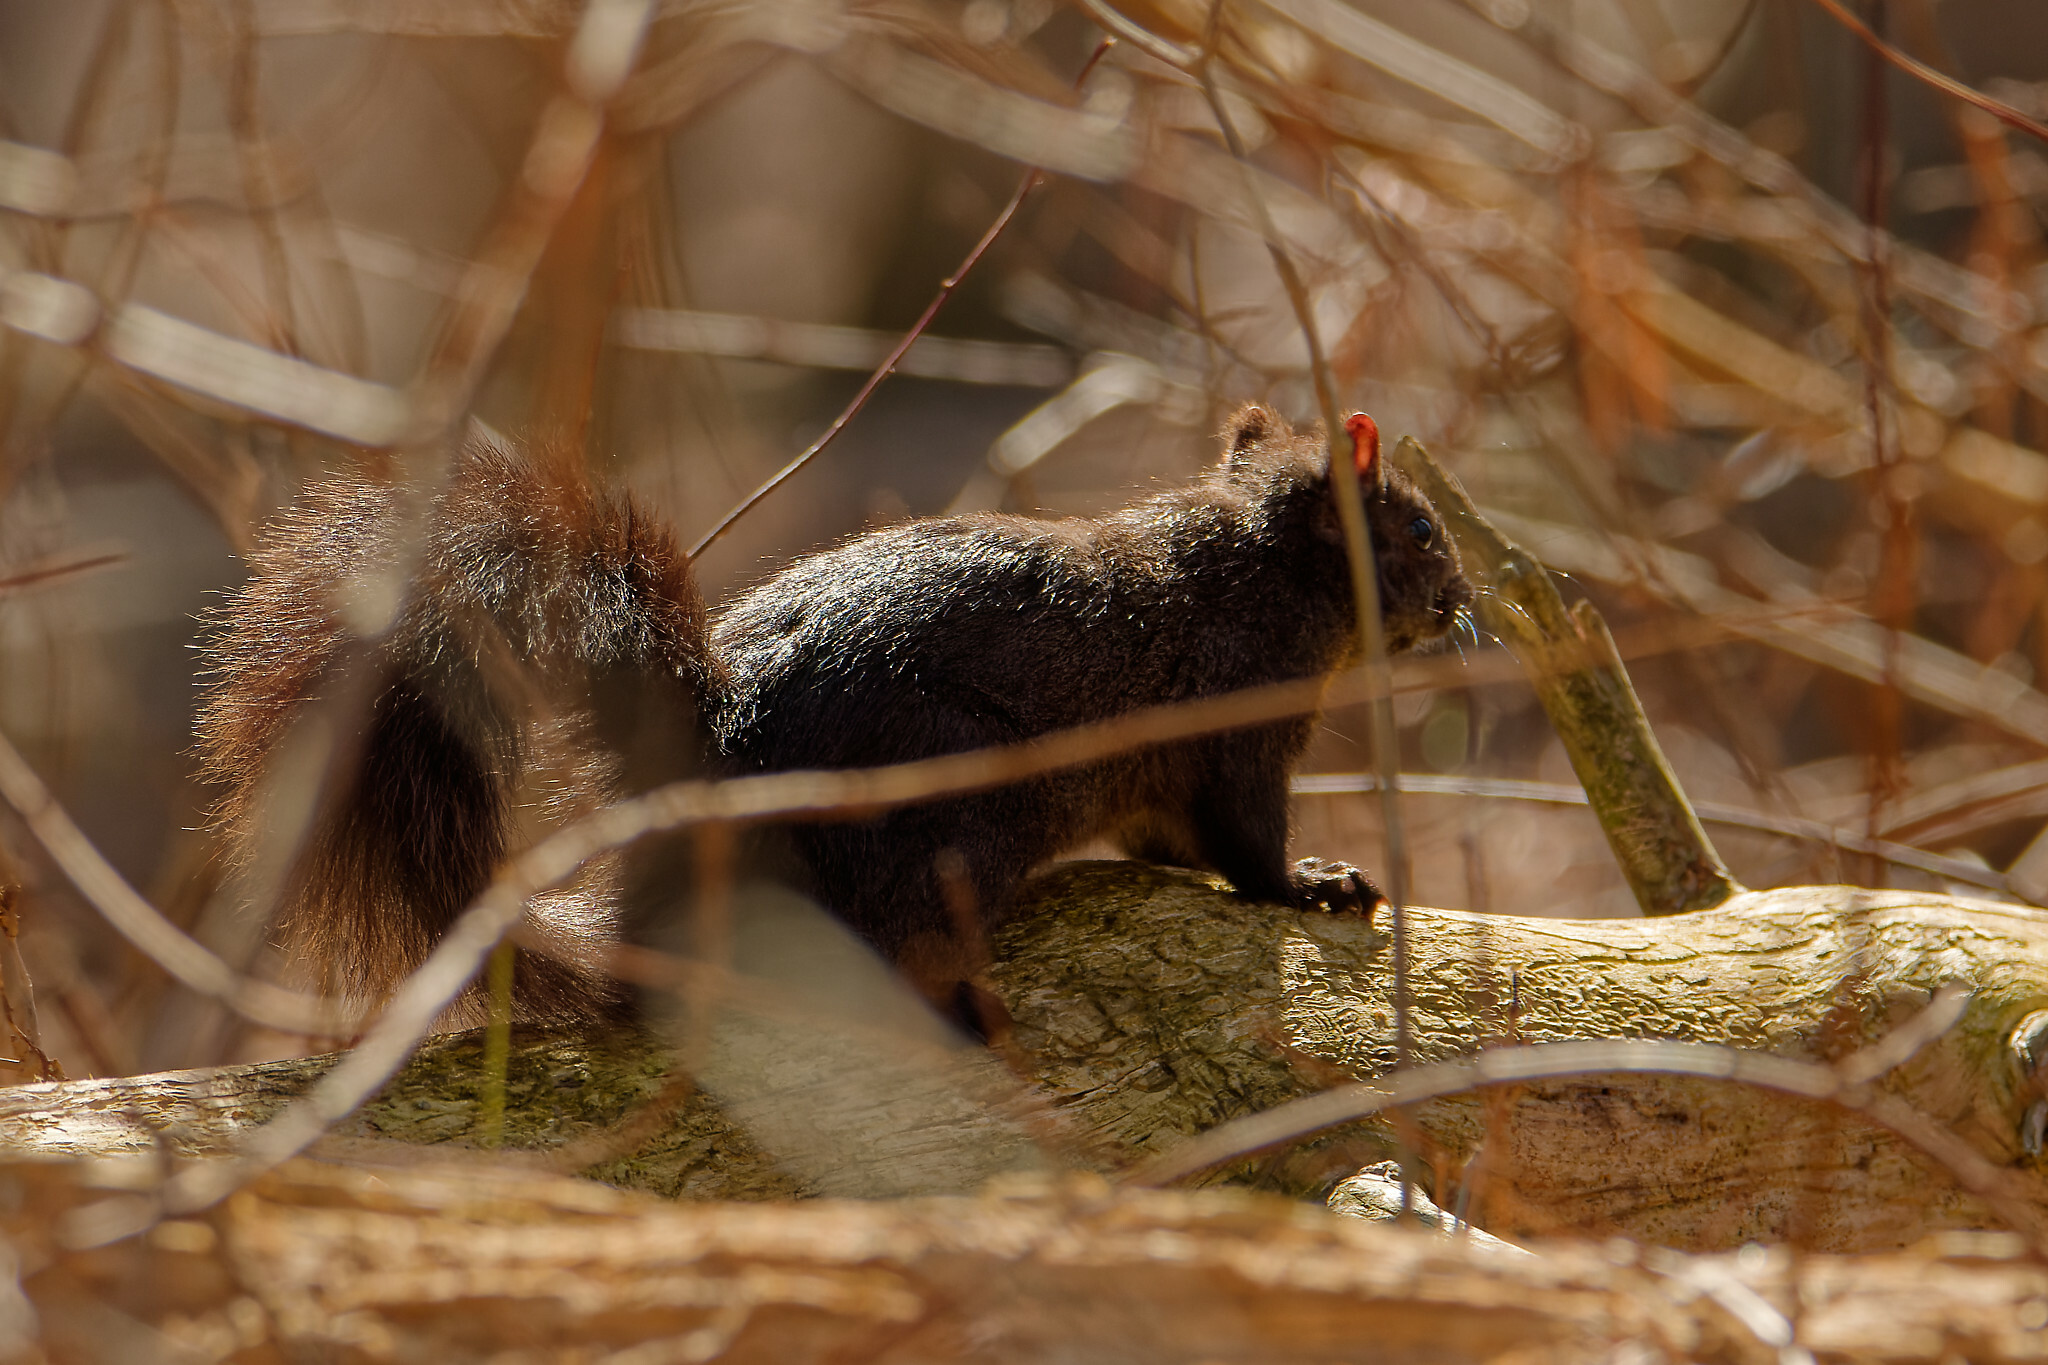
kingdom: Animalia
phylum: Chordata
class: Mammalia
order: Rodentia
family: Sciuridae
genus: Sciurus
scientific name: Sciurus carolinensis
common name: Eastern gray squirrel
